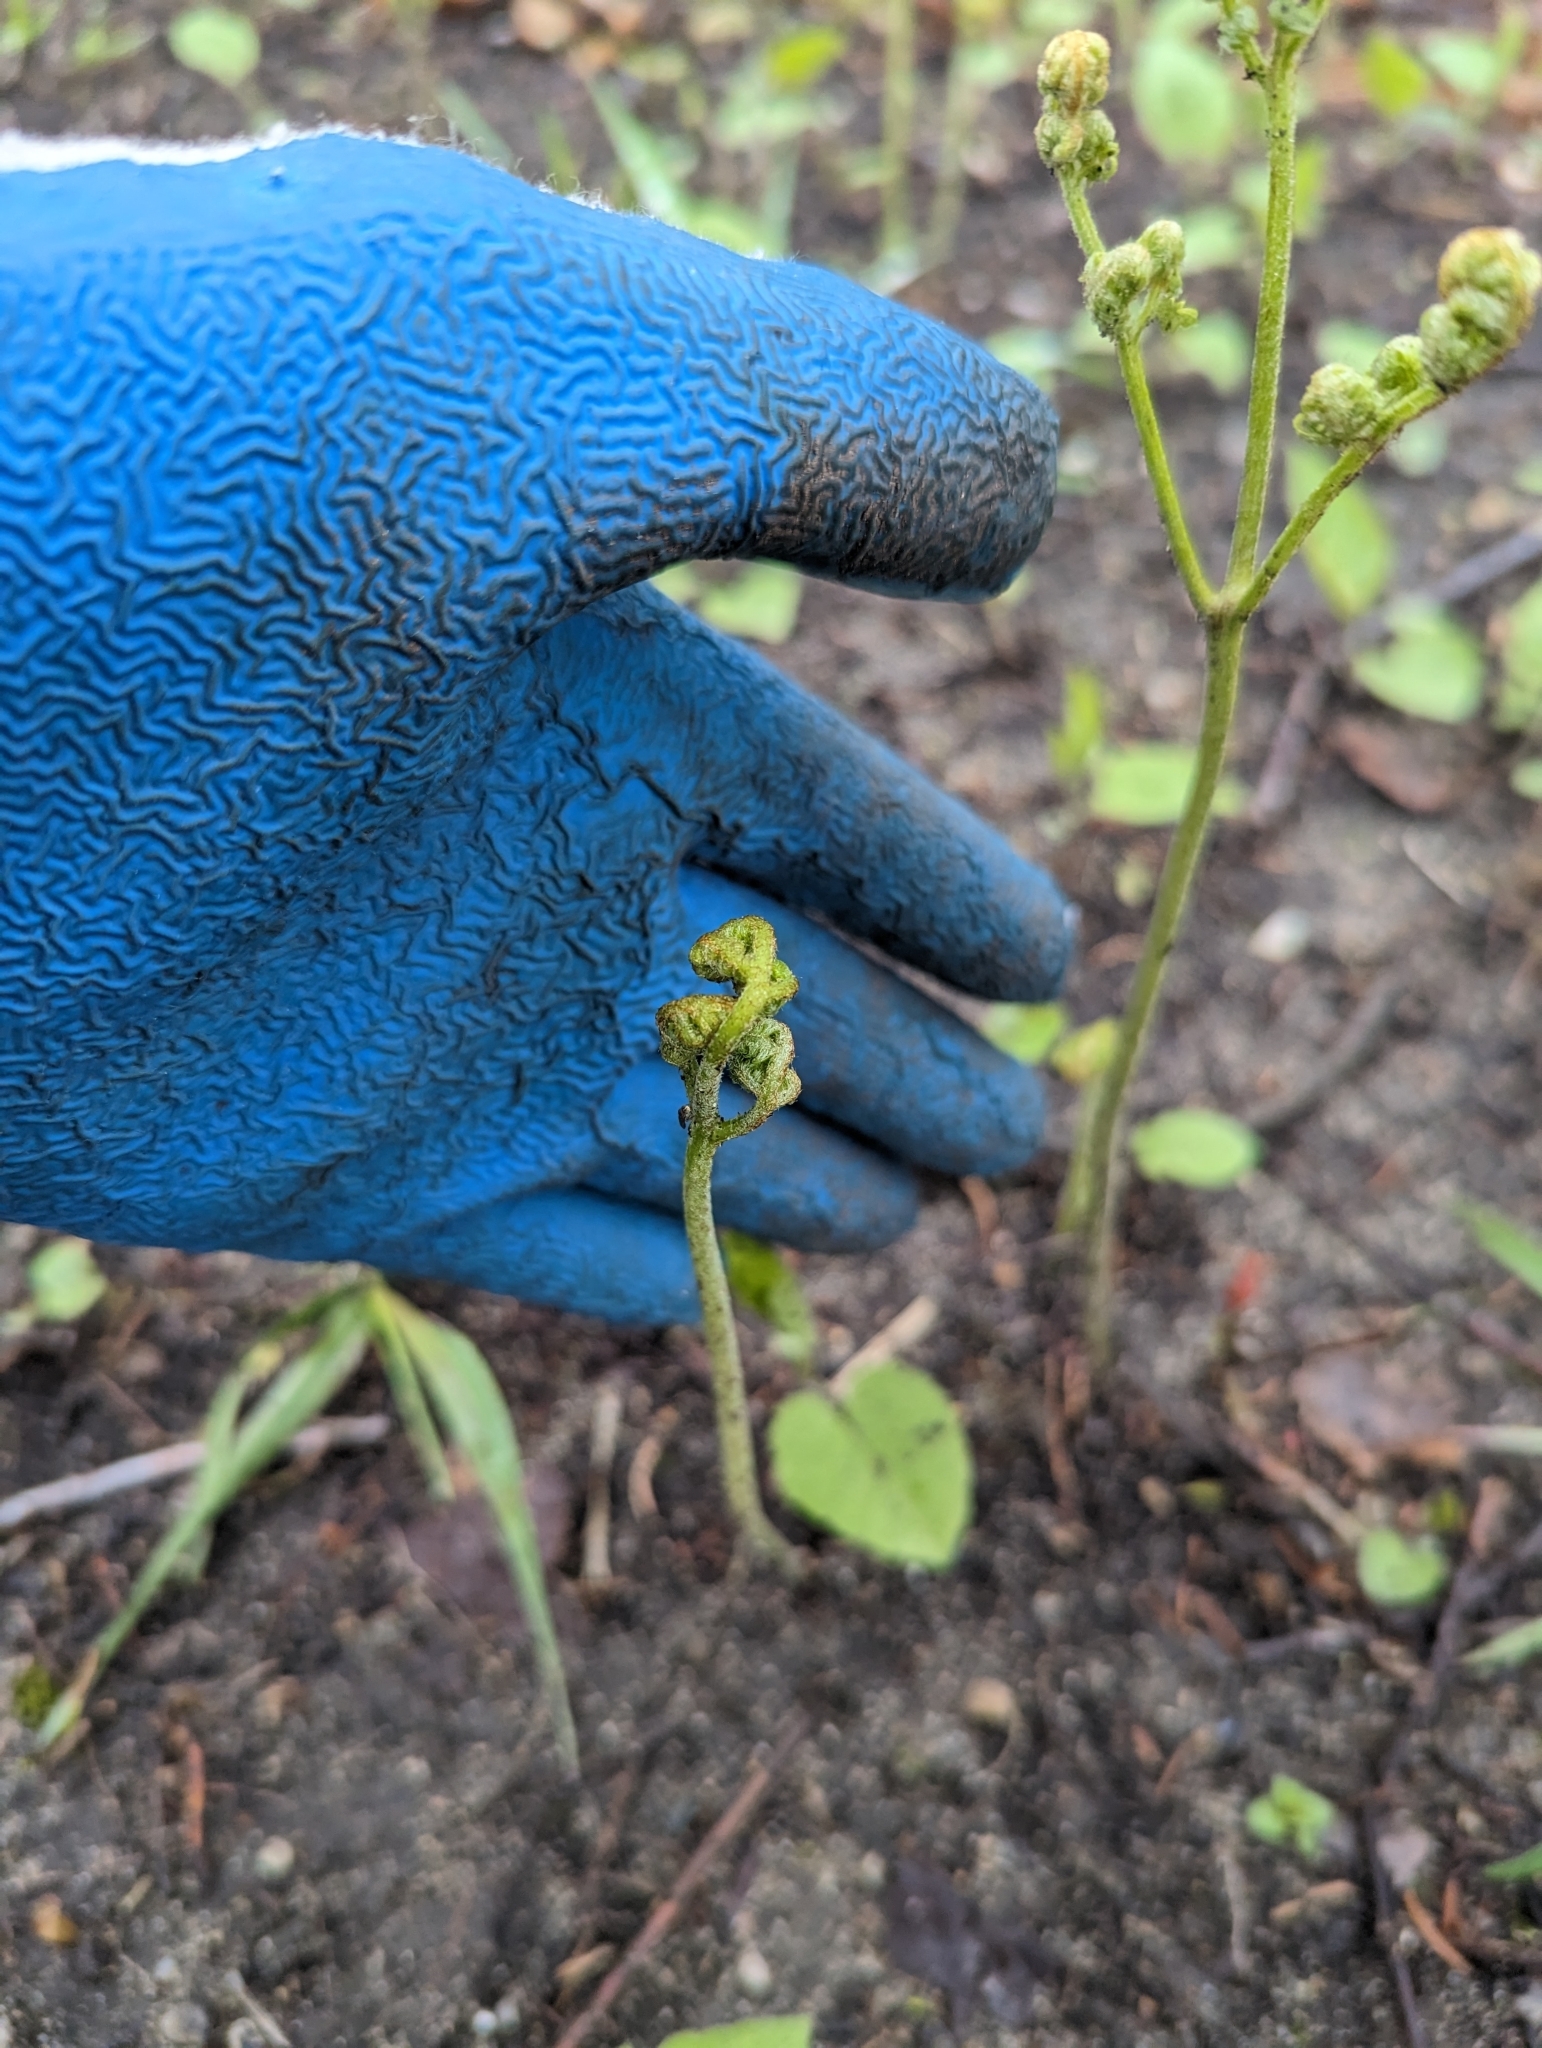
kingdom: Plantae
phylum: Tracheophyta
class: Polypodiopsida
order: Polypodiales
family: Dennstaedtiaceae
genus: Pteridium
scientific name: Pteridium aquilinum
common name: Bracken
